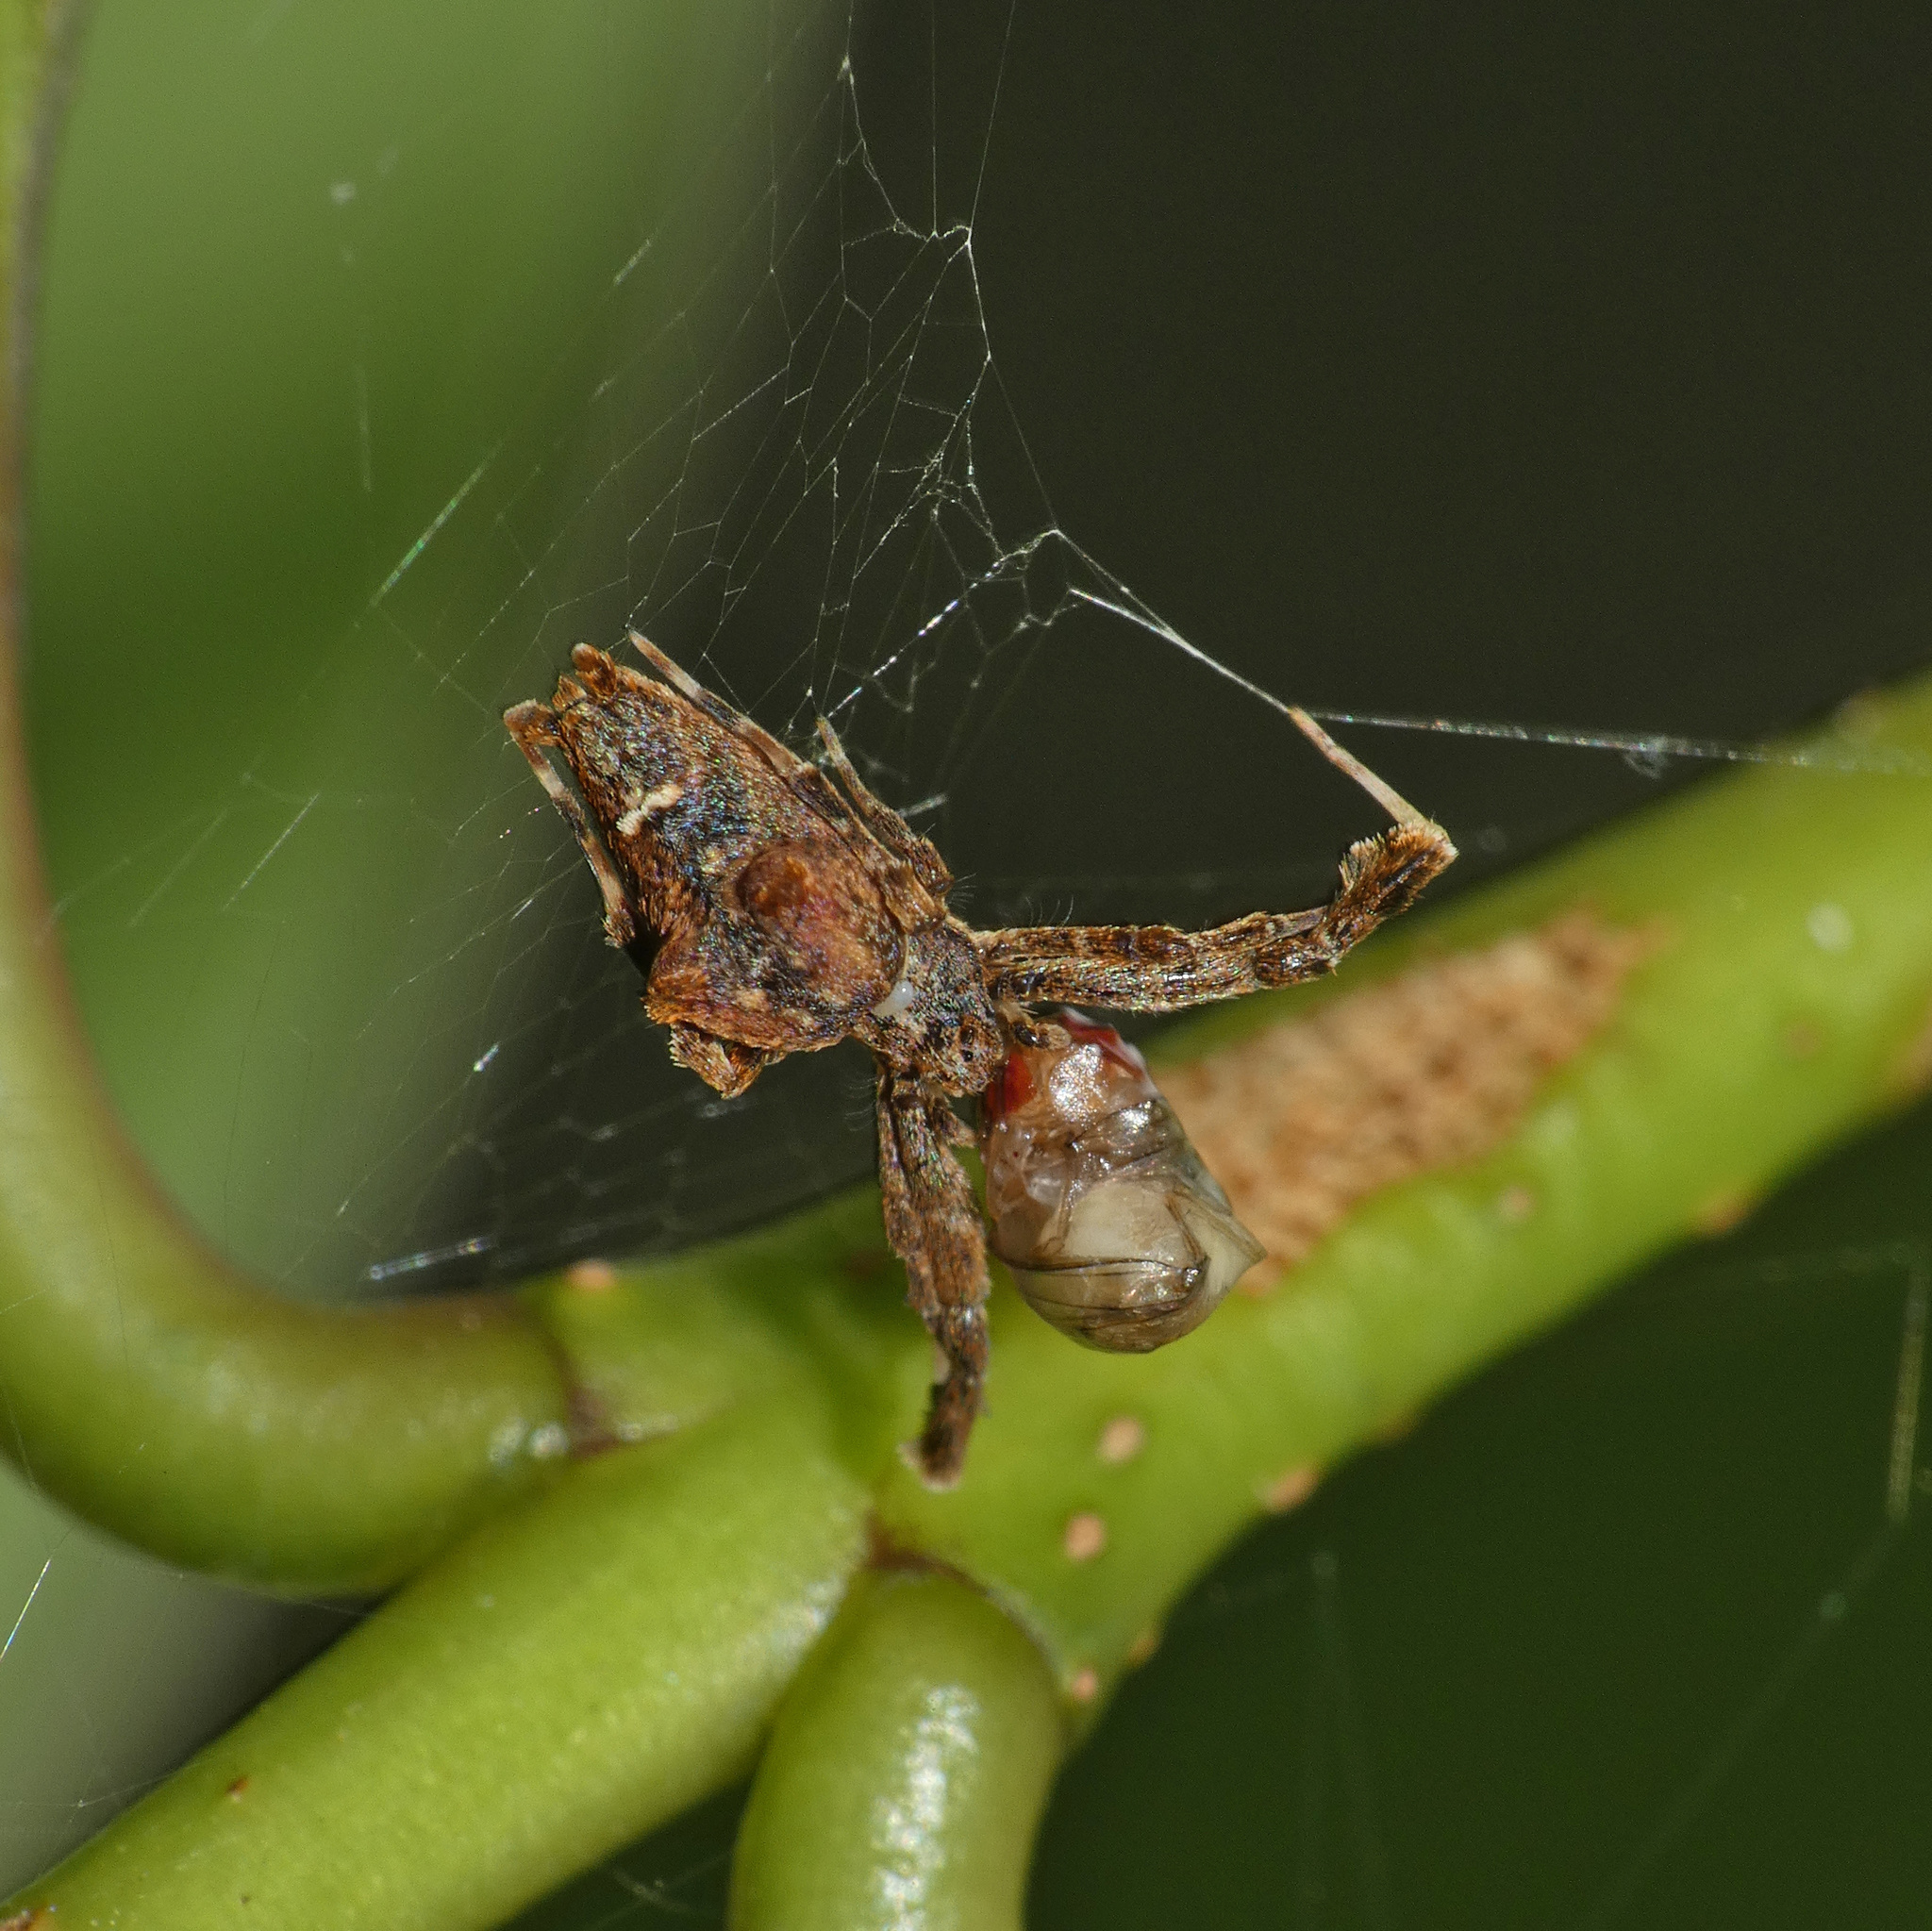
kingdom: Animalia
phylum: Arthropoda
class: Arachnida
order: Araneae
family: Uloboridae
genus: Uloborus
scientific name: Uloborus plumipes
